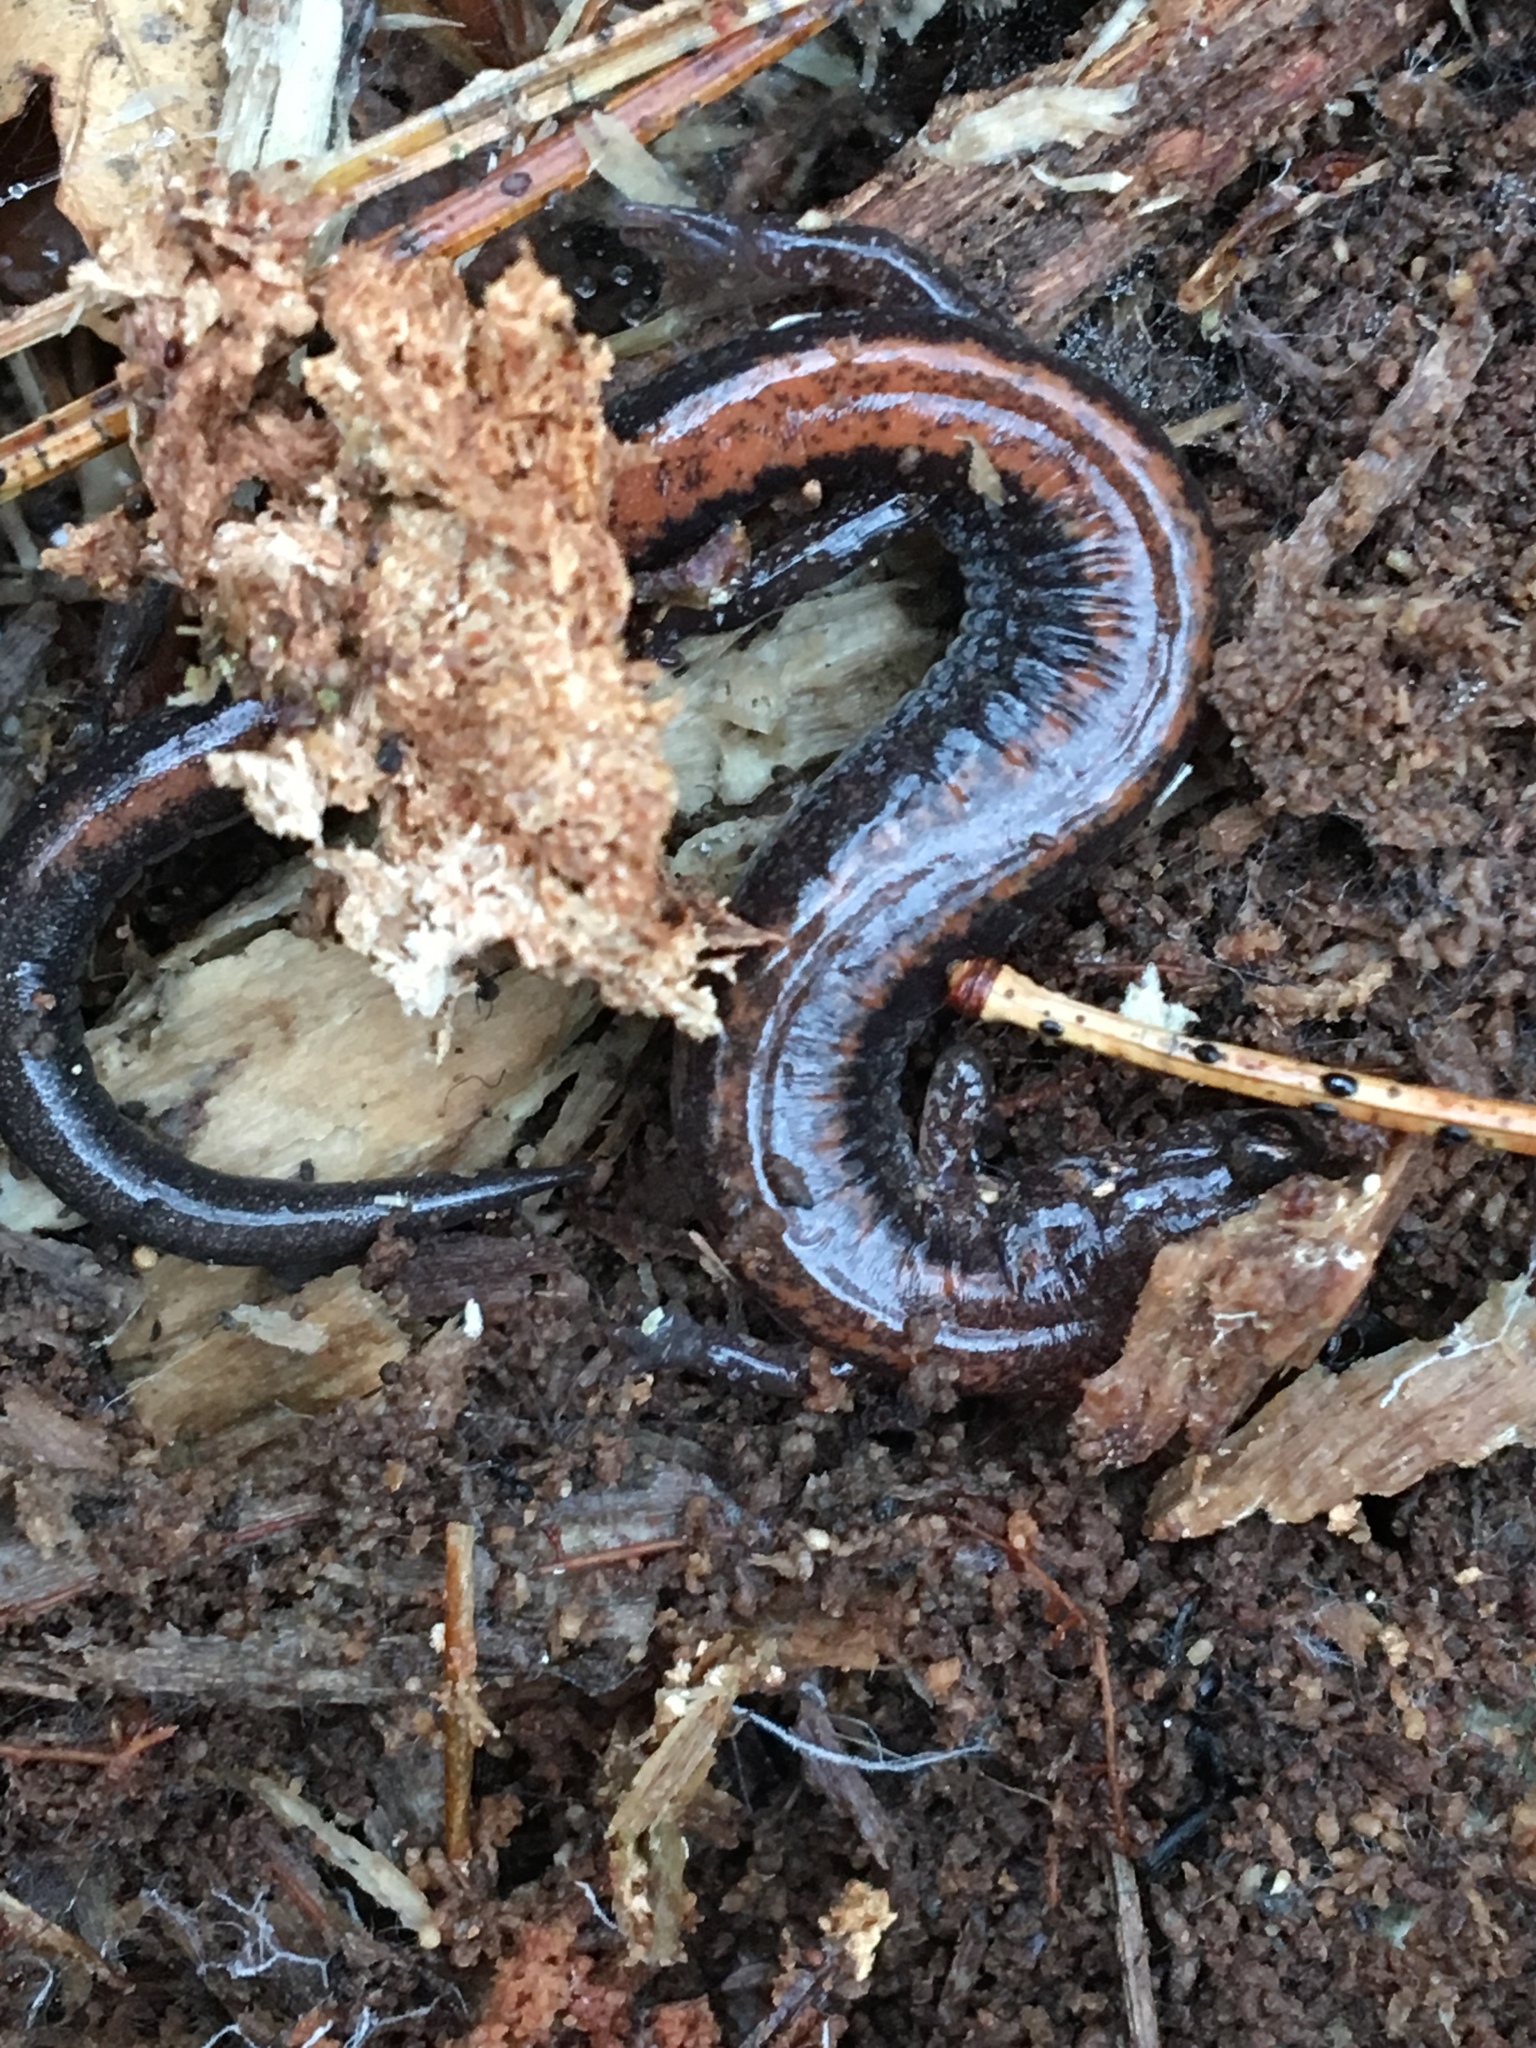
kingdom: Animalia
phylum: Chordata
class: Amphibia
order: Caudata
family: Plethodontidae
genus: Plethodon
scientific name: Plethodon cinereus
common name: Redback salamander
